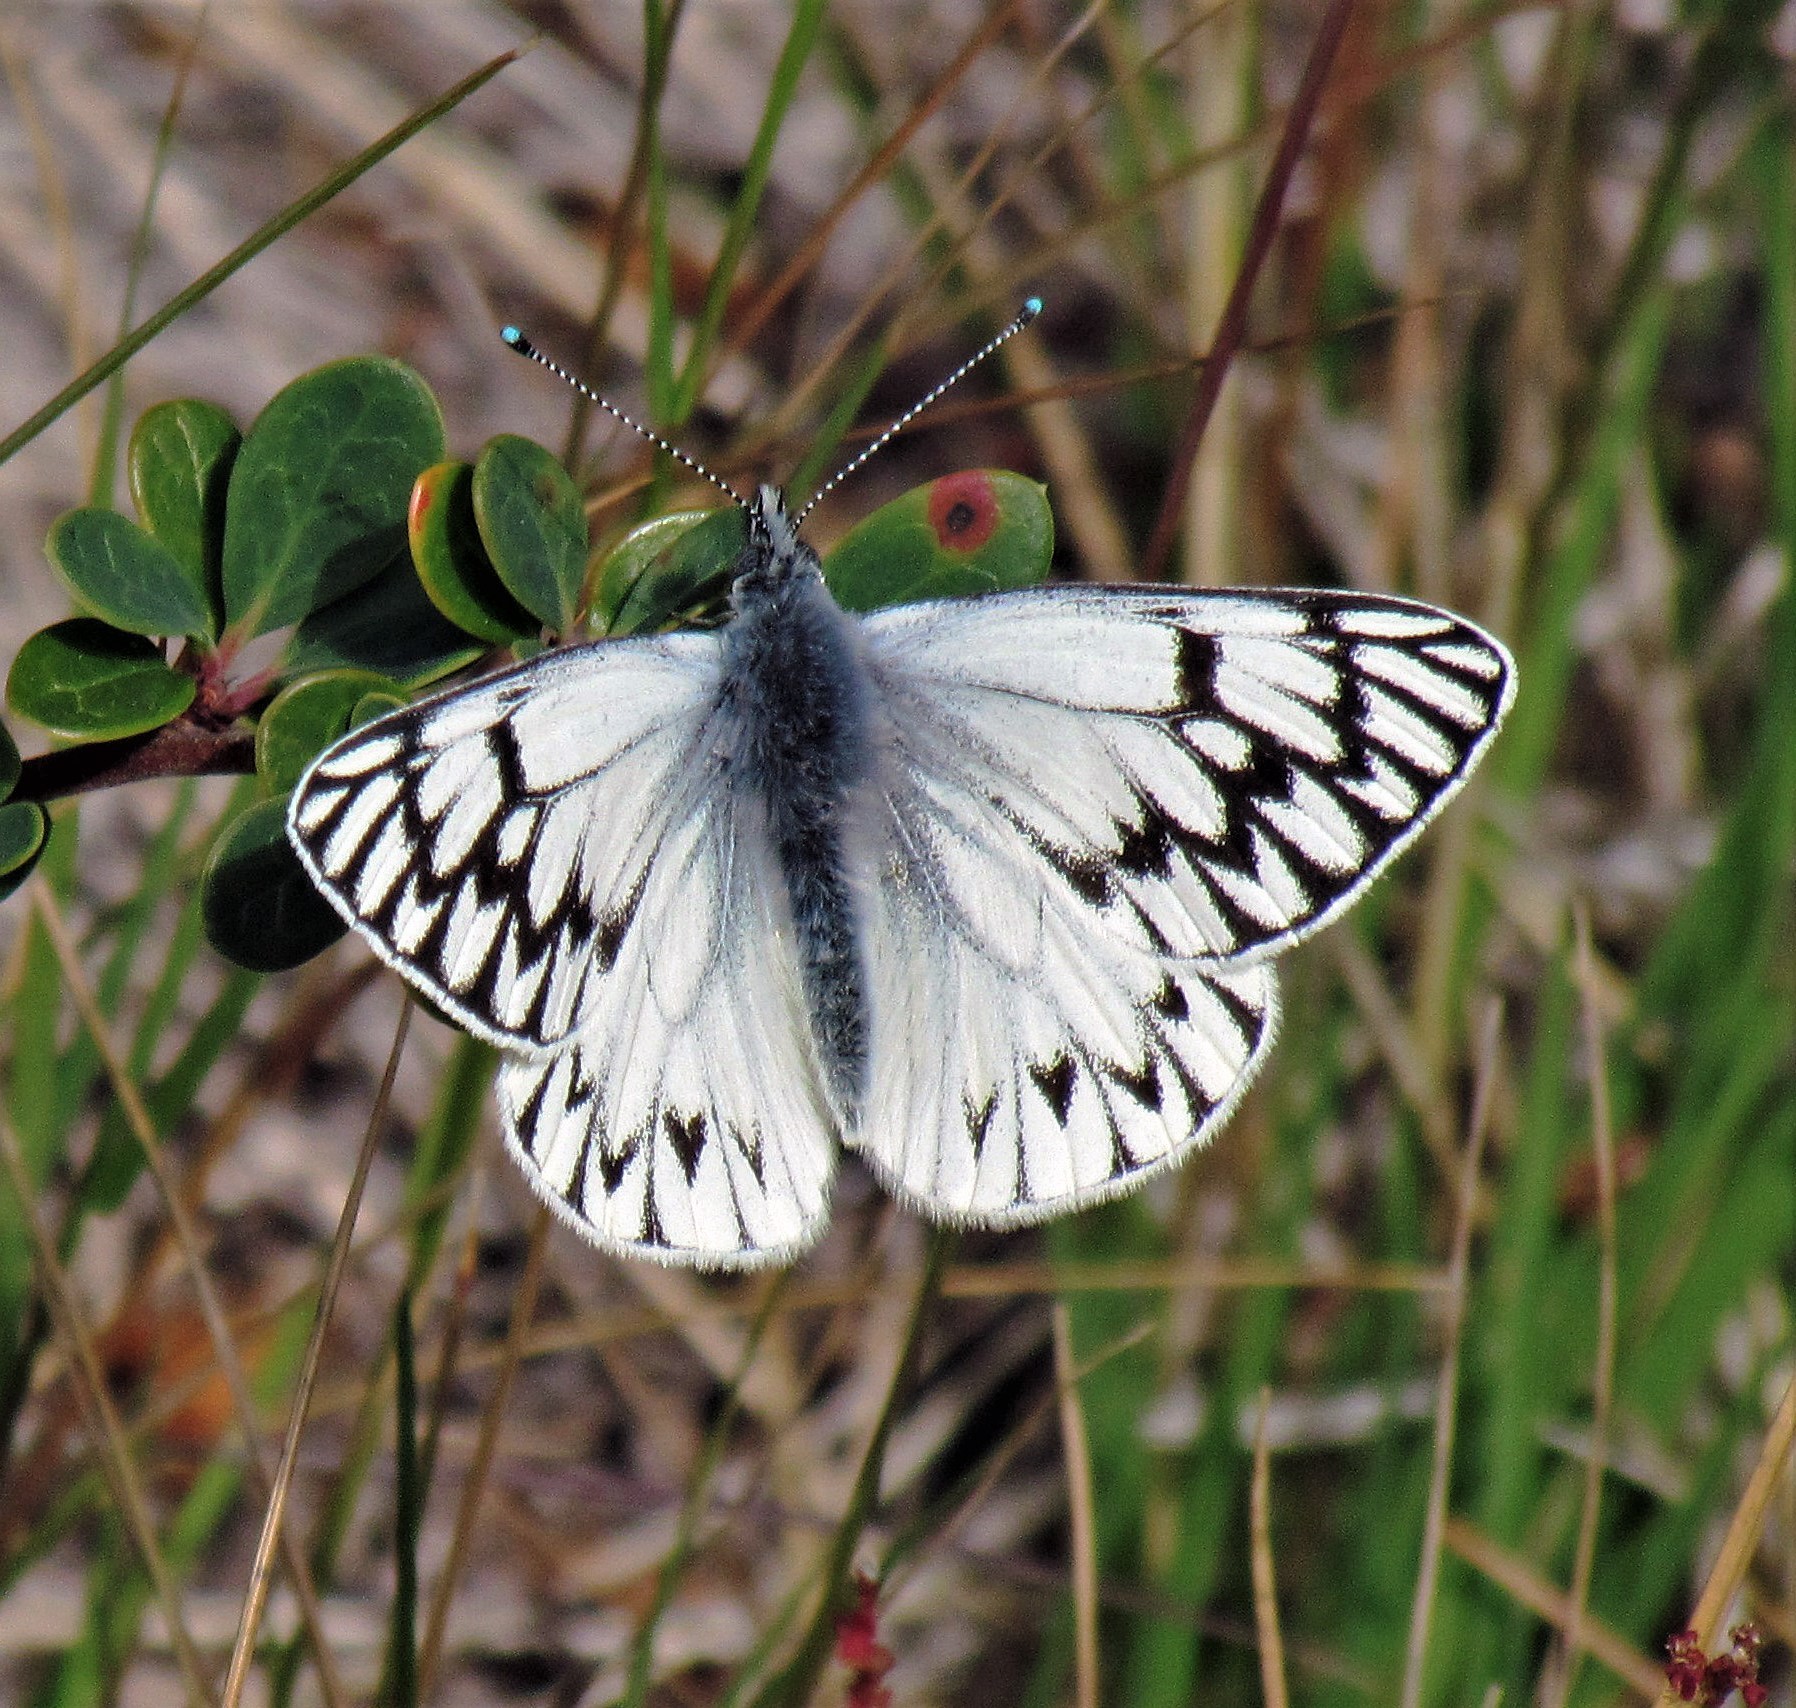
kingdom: Animalia
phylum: Arthropoda
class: Insecta
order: Lepidoptera
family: Pieridae
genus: Tatochila
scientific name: Tatochila theodice
